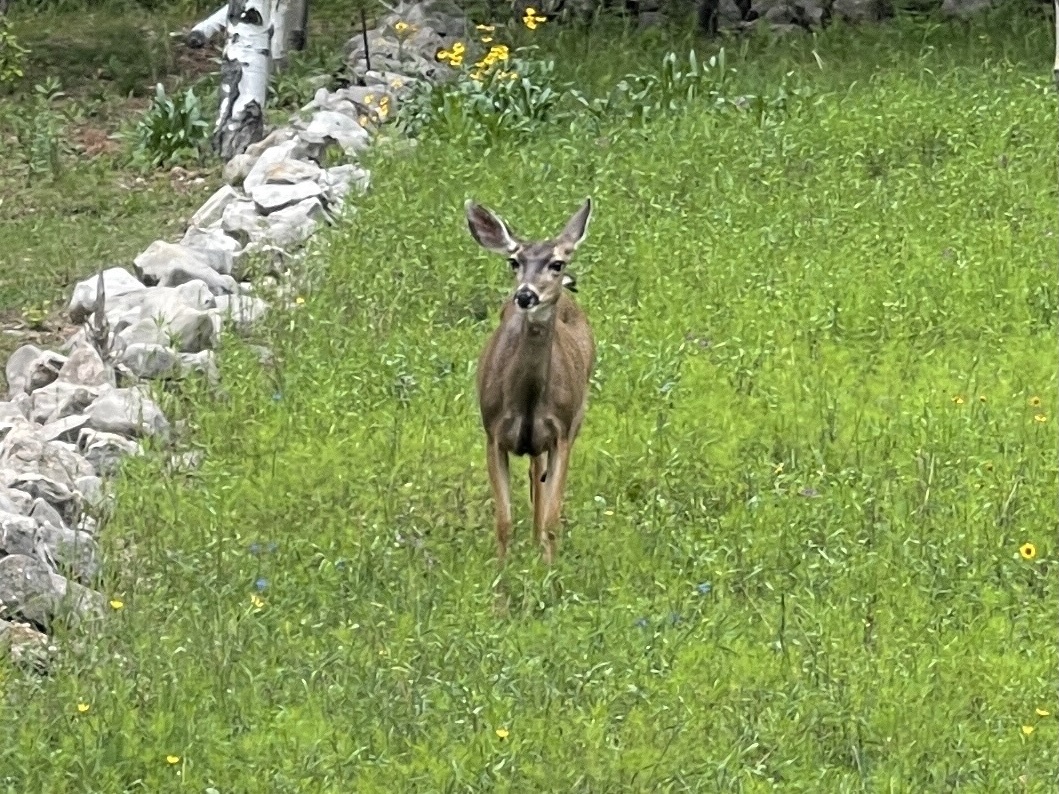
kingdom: Animalia
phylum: Chordata
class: Mammalia
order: Artiodactyla
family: Cervidae
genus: Odocoileus
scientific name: Odocoileus hemionus
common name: Mule deer
